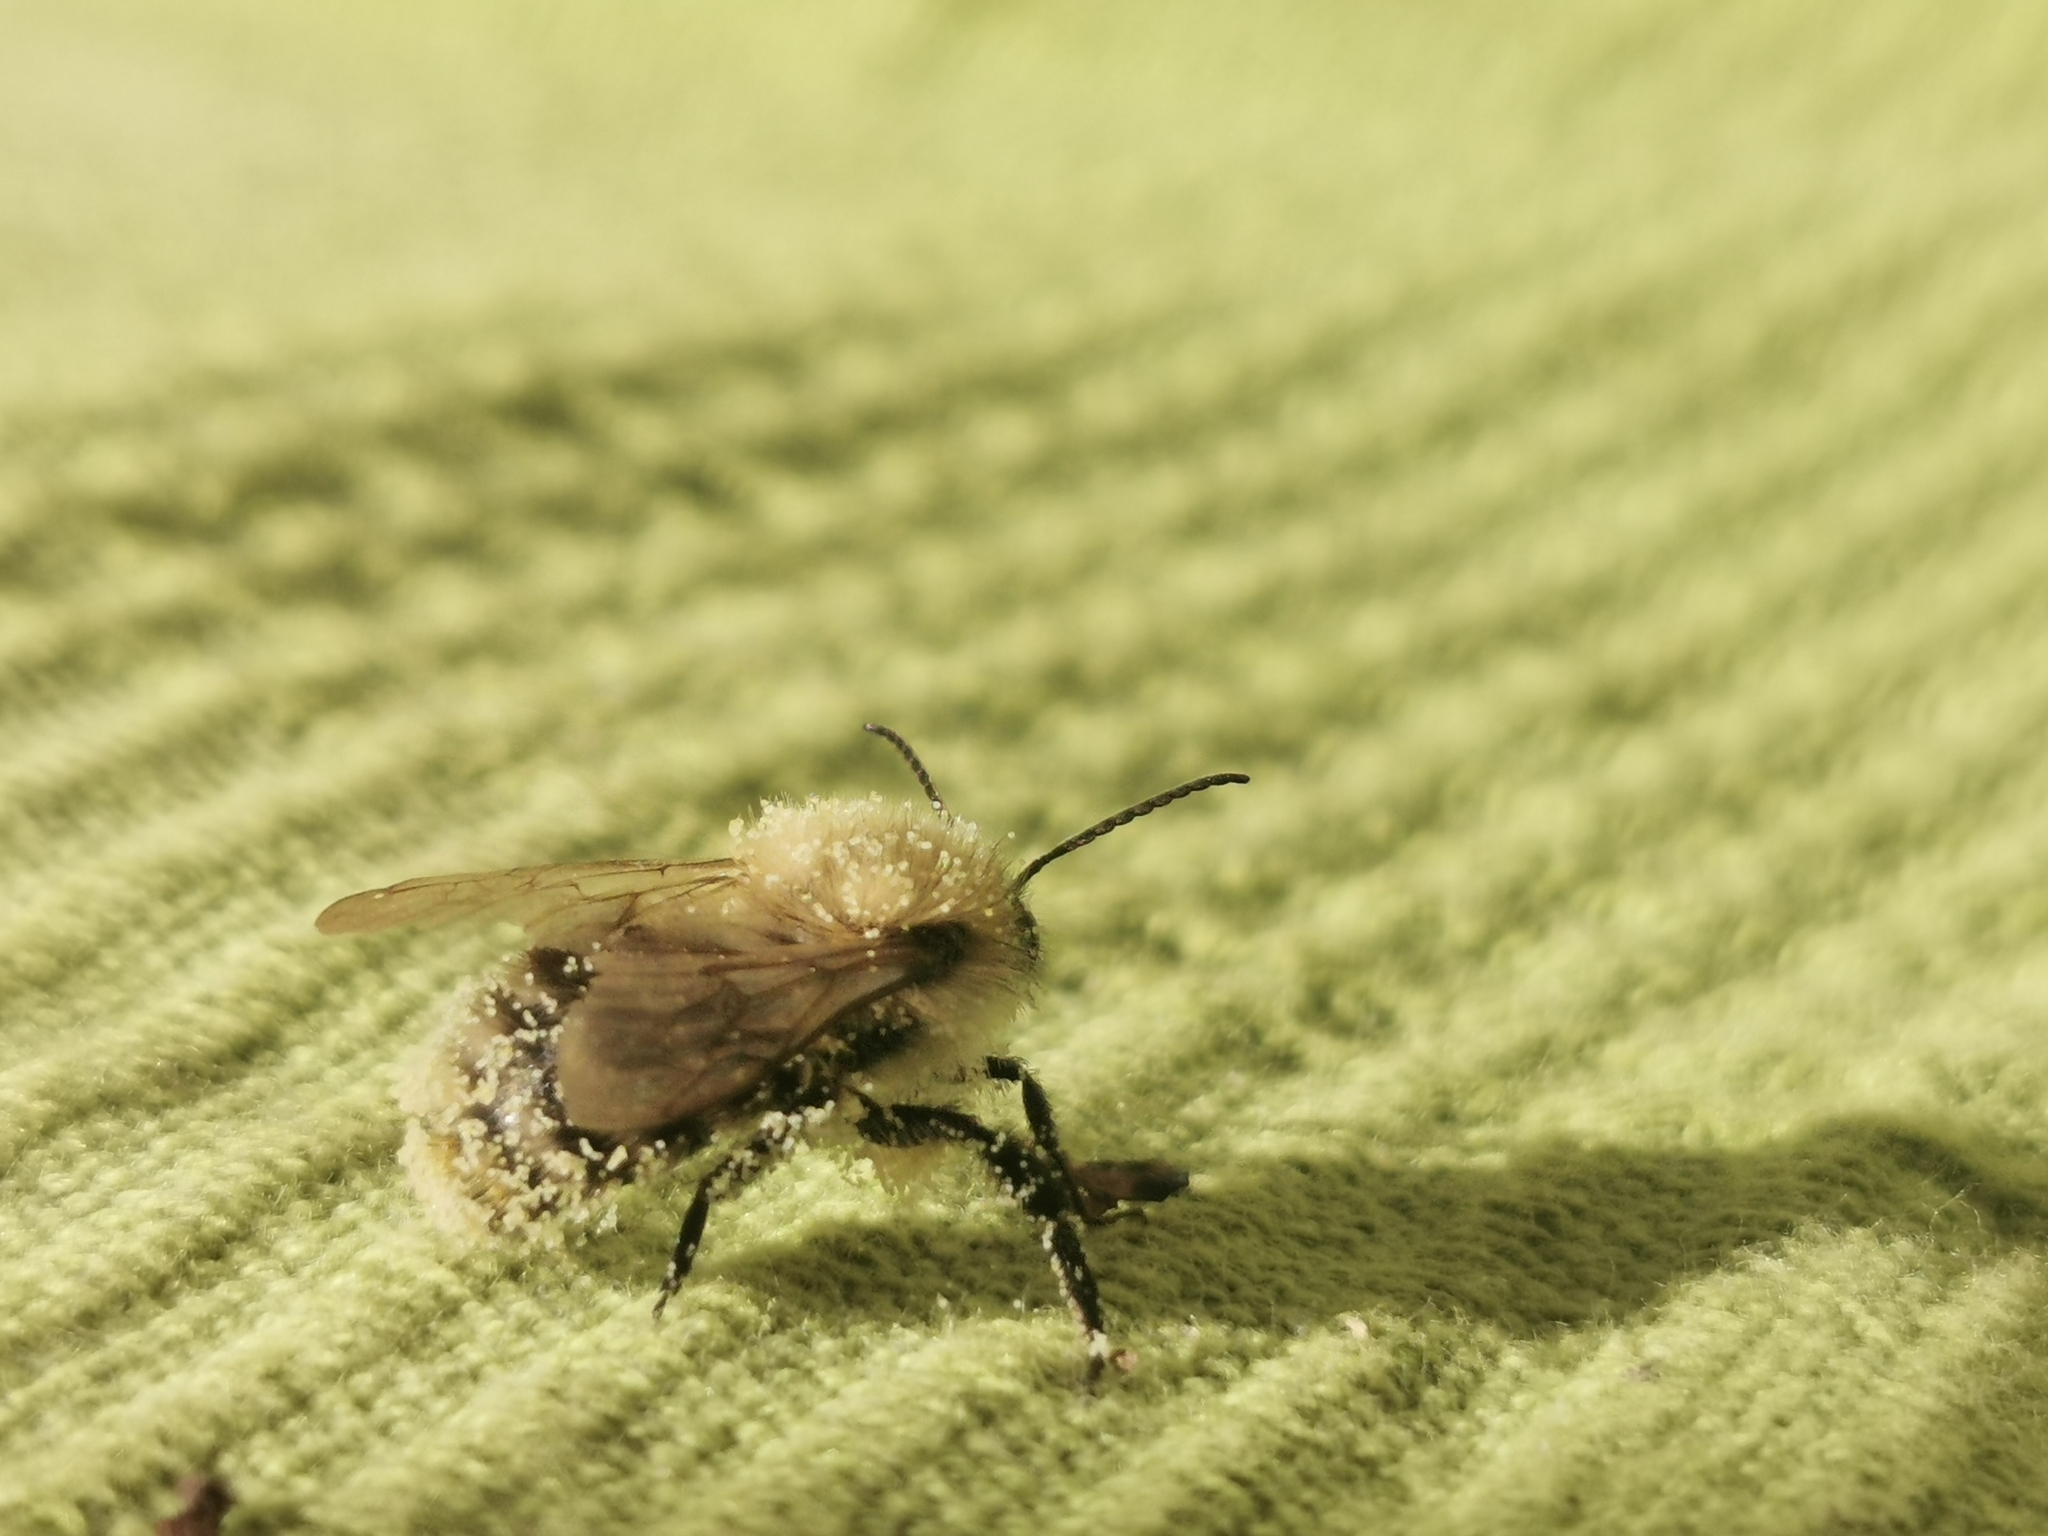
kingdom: Animalia
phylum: Arthropoda
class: Insecta
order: Hymenoptera
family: Apidae
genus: Bombus
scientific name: Bombus pascuorum
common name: Common carder bee
